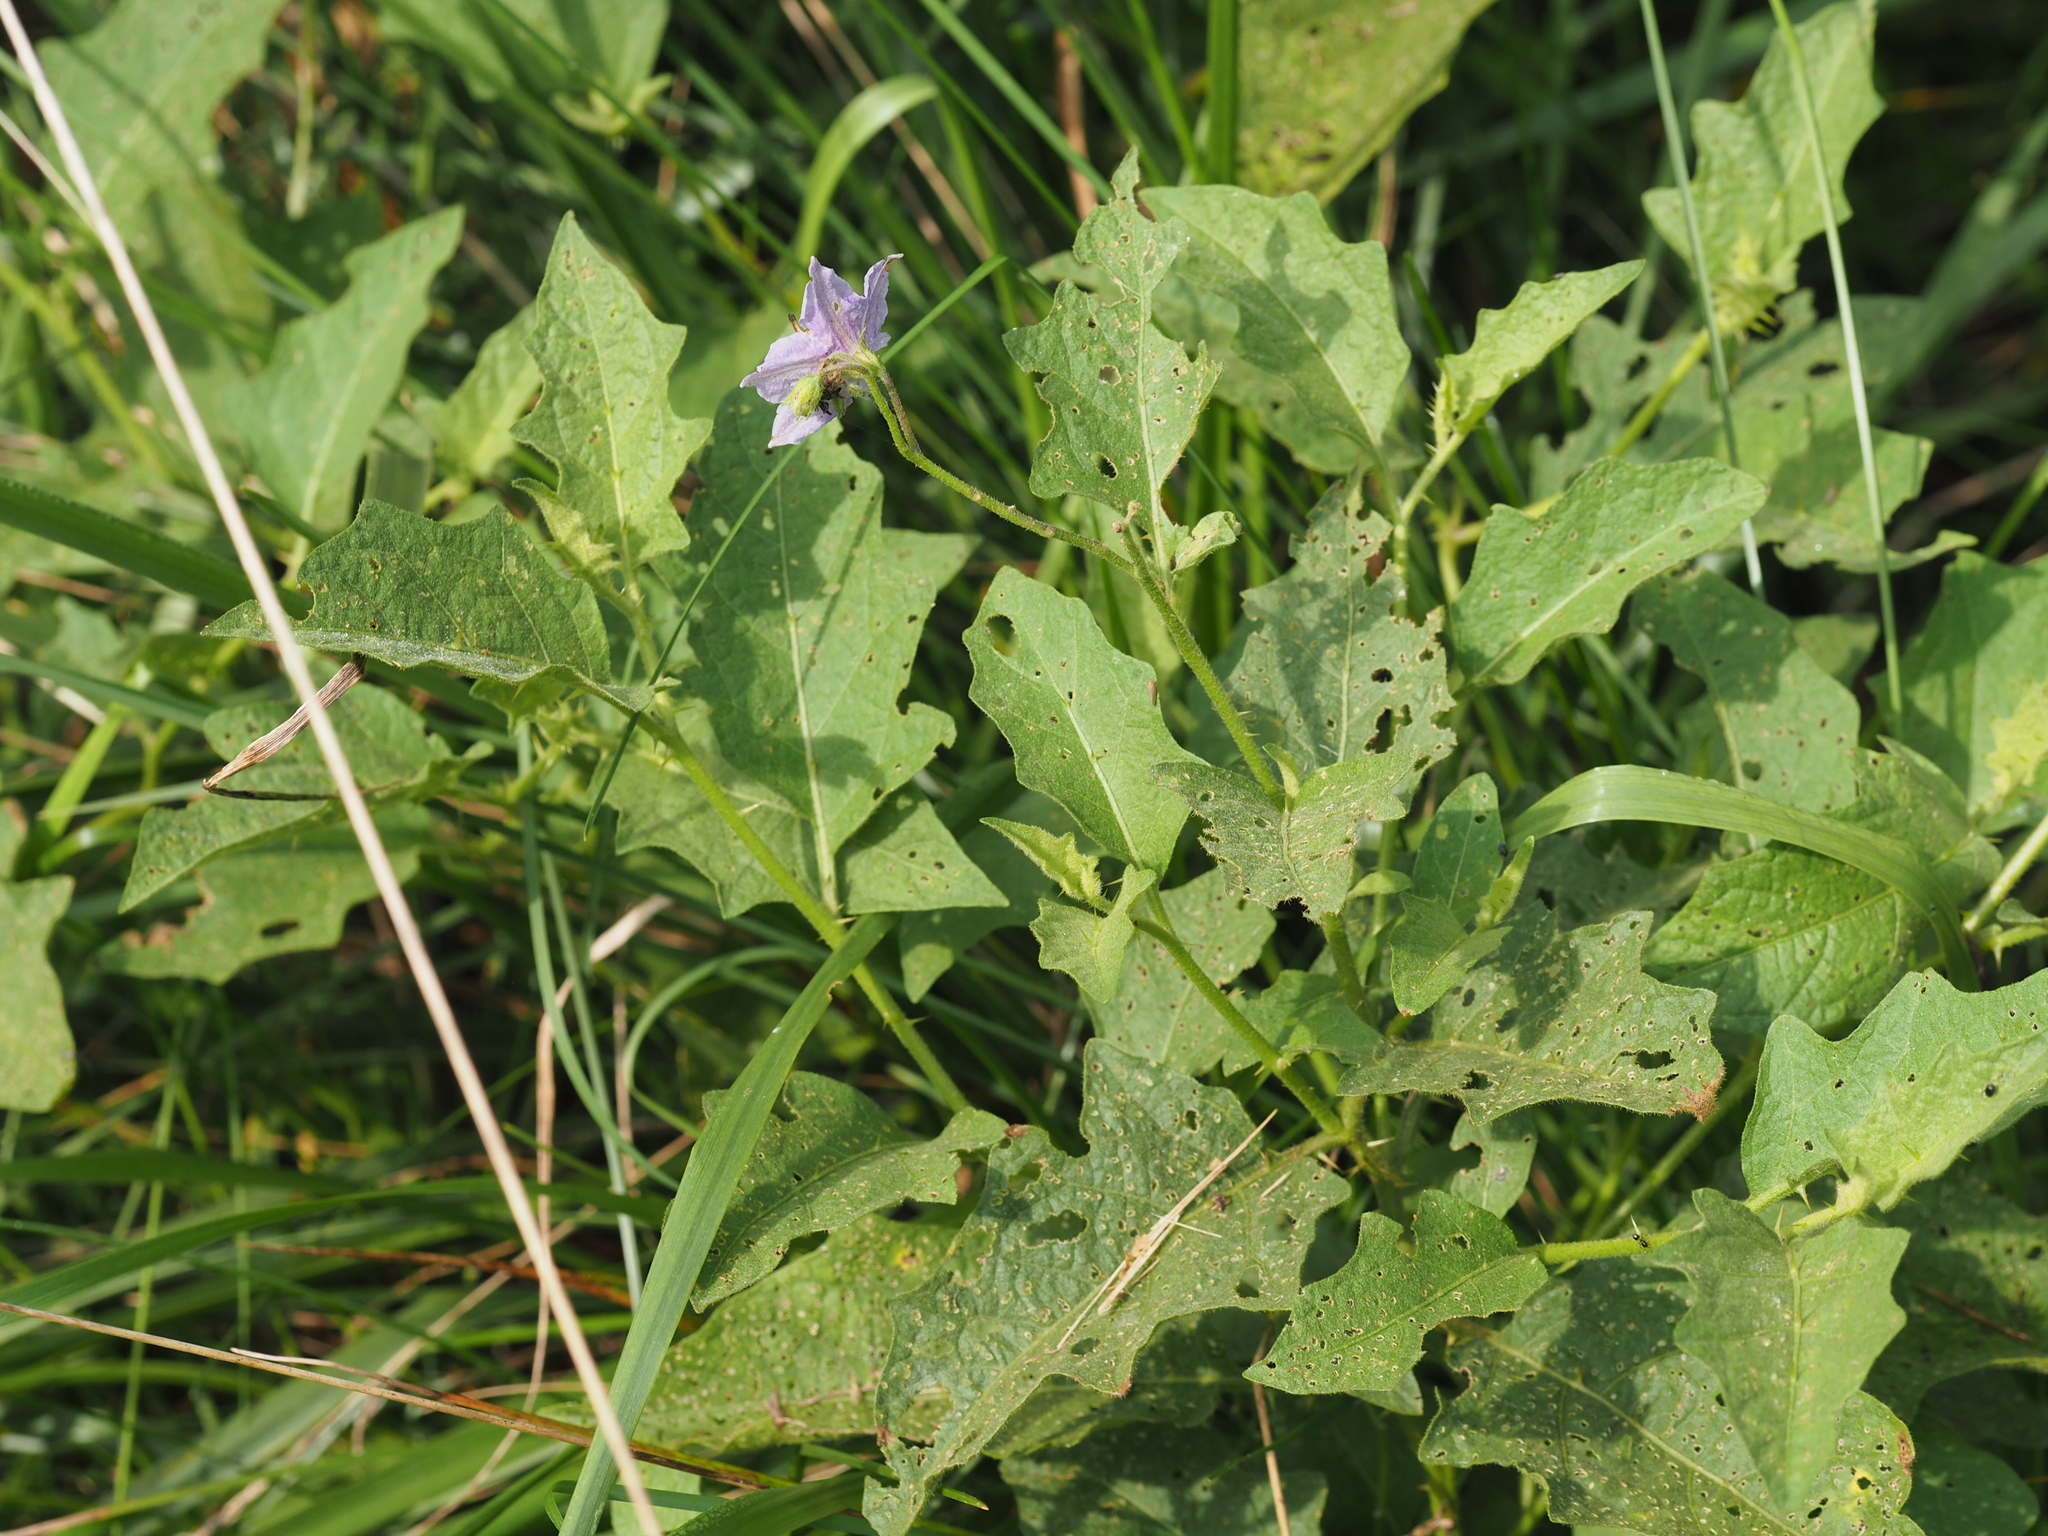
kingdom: Plantae
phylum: Tracheophyta
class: Magnoliopsida
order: Solanales
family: Solanaceae
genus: Solanum
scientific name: Solanum carolinense
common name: Horse-nettle
